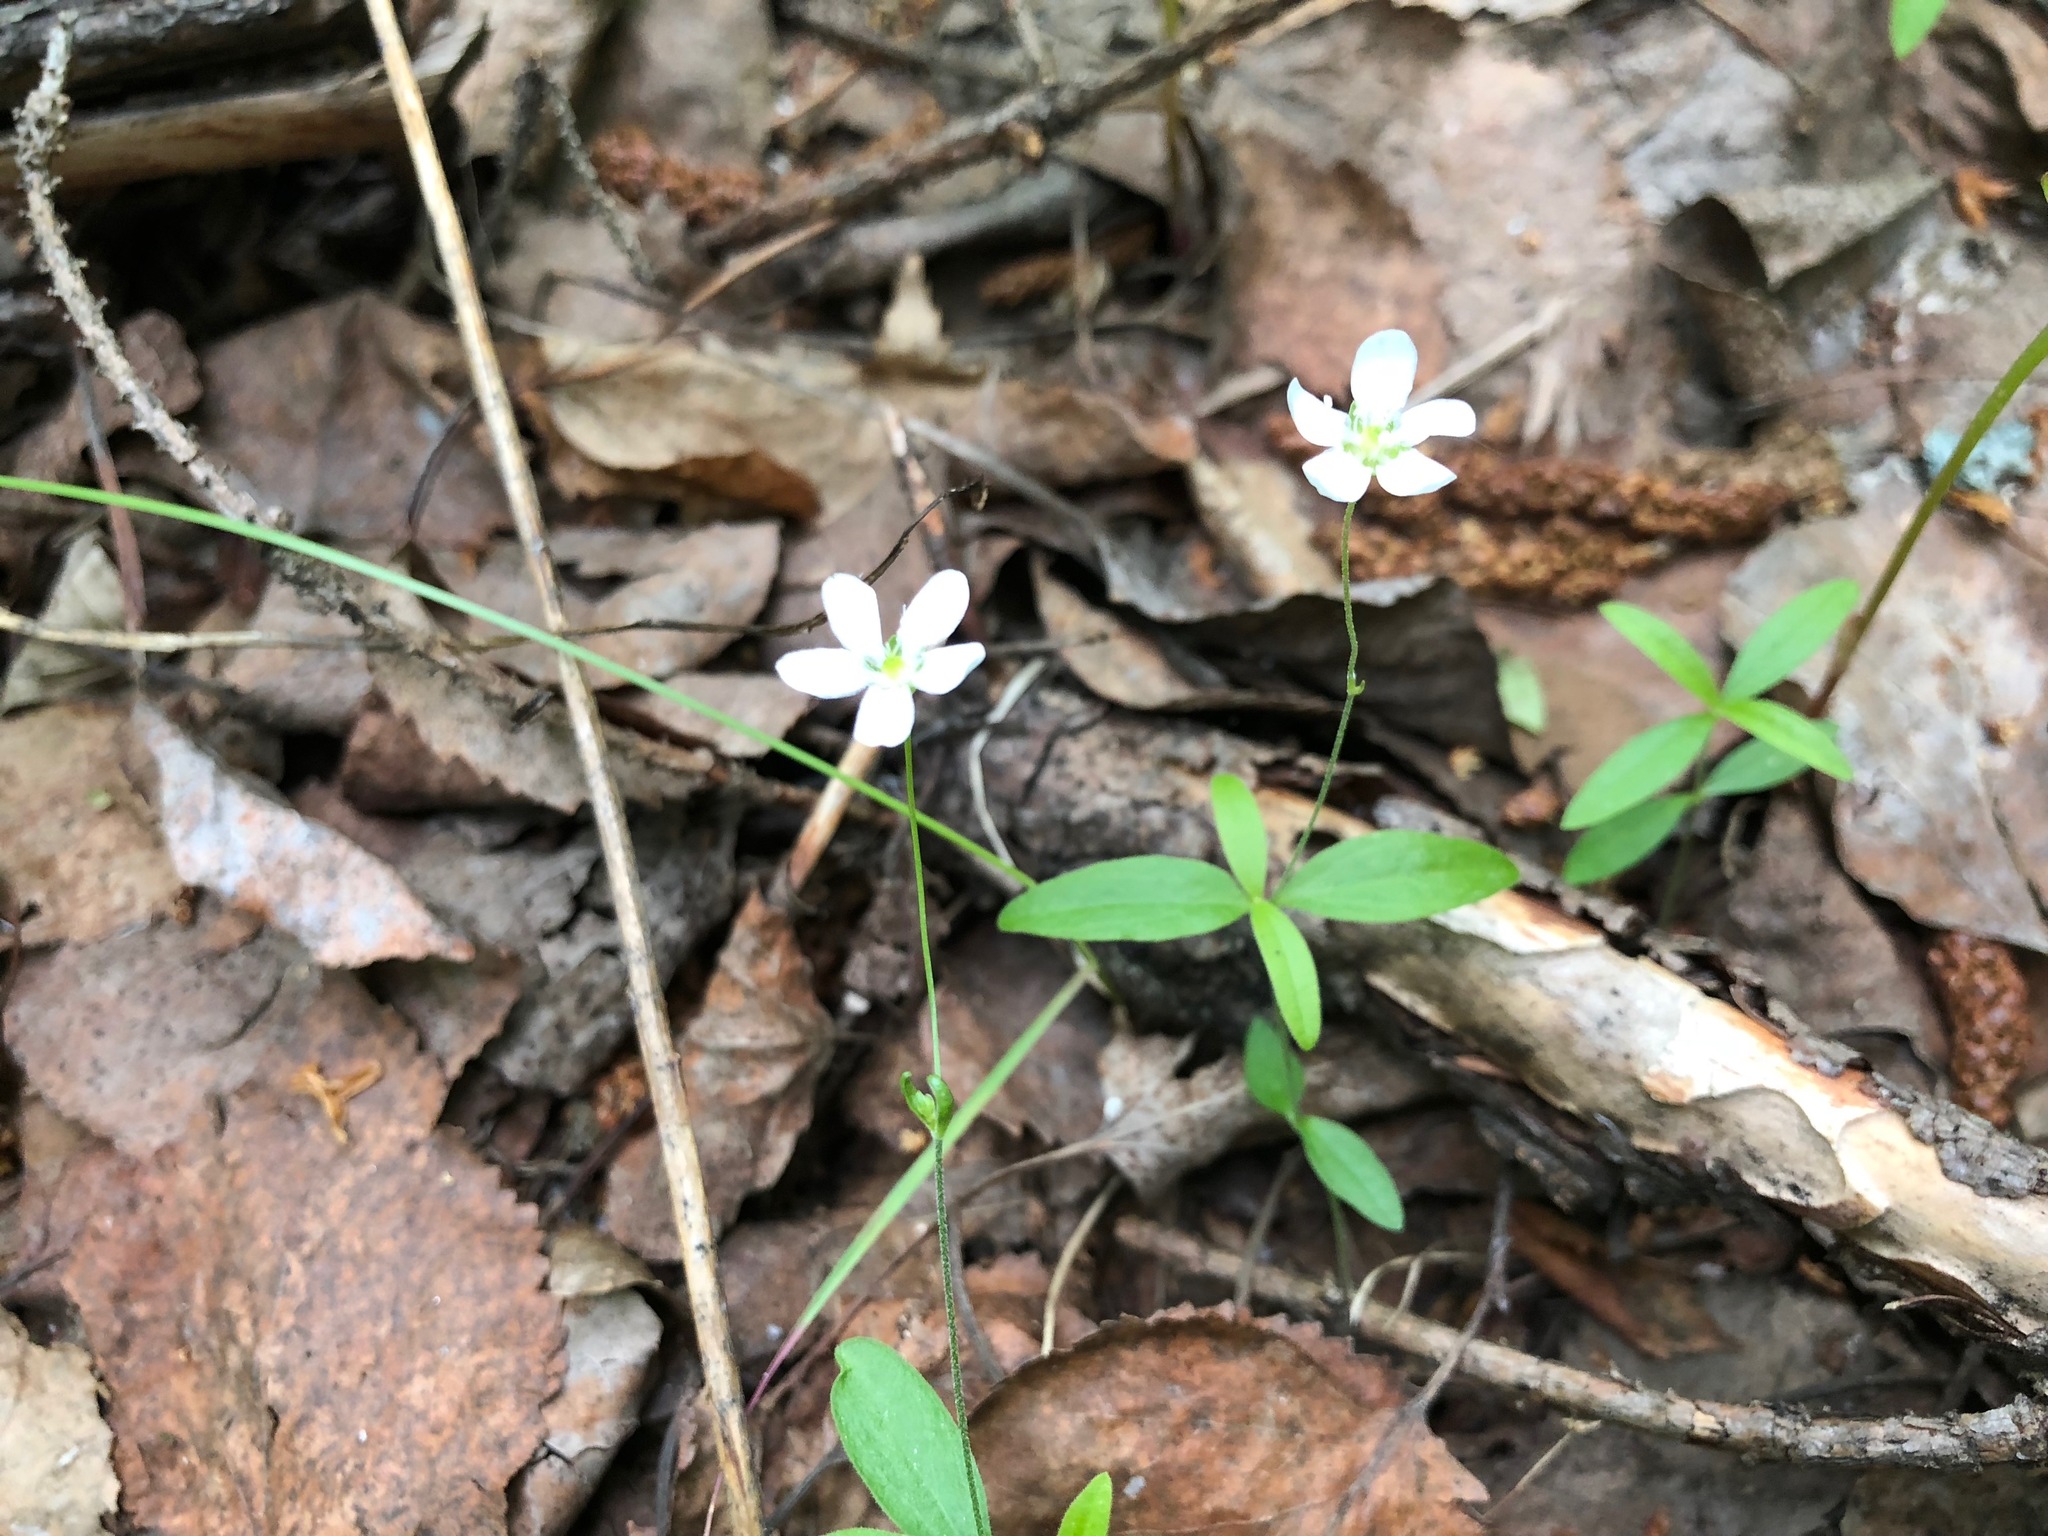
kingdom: Plantae
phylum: Tracheophyta
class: Magnoliopsida
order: Caryophyllales
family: Caryophyllaceae
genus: Moehringia
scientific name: Moehringia lateriflora
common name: Blunt-leaved sandwort
